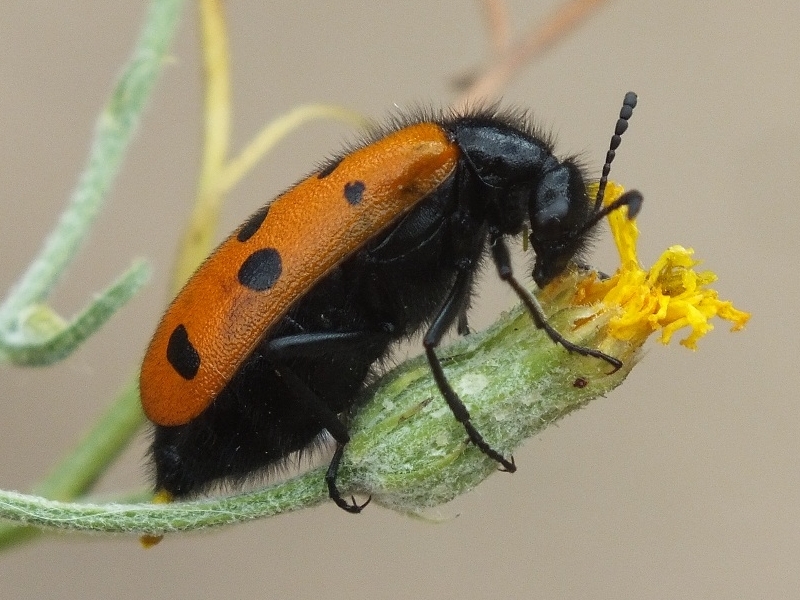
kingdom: Animalia
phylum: Arthropoda
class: Insecta
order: Coleoptera
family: Meloidae
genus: Mylabris
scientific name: Mylabris fabricii
